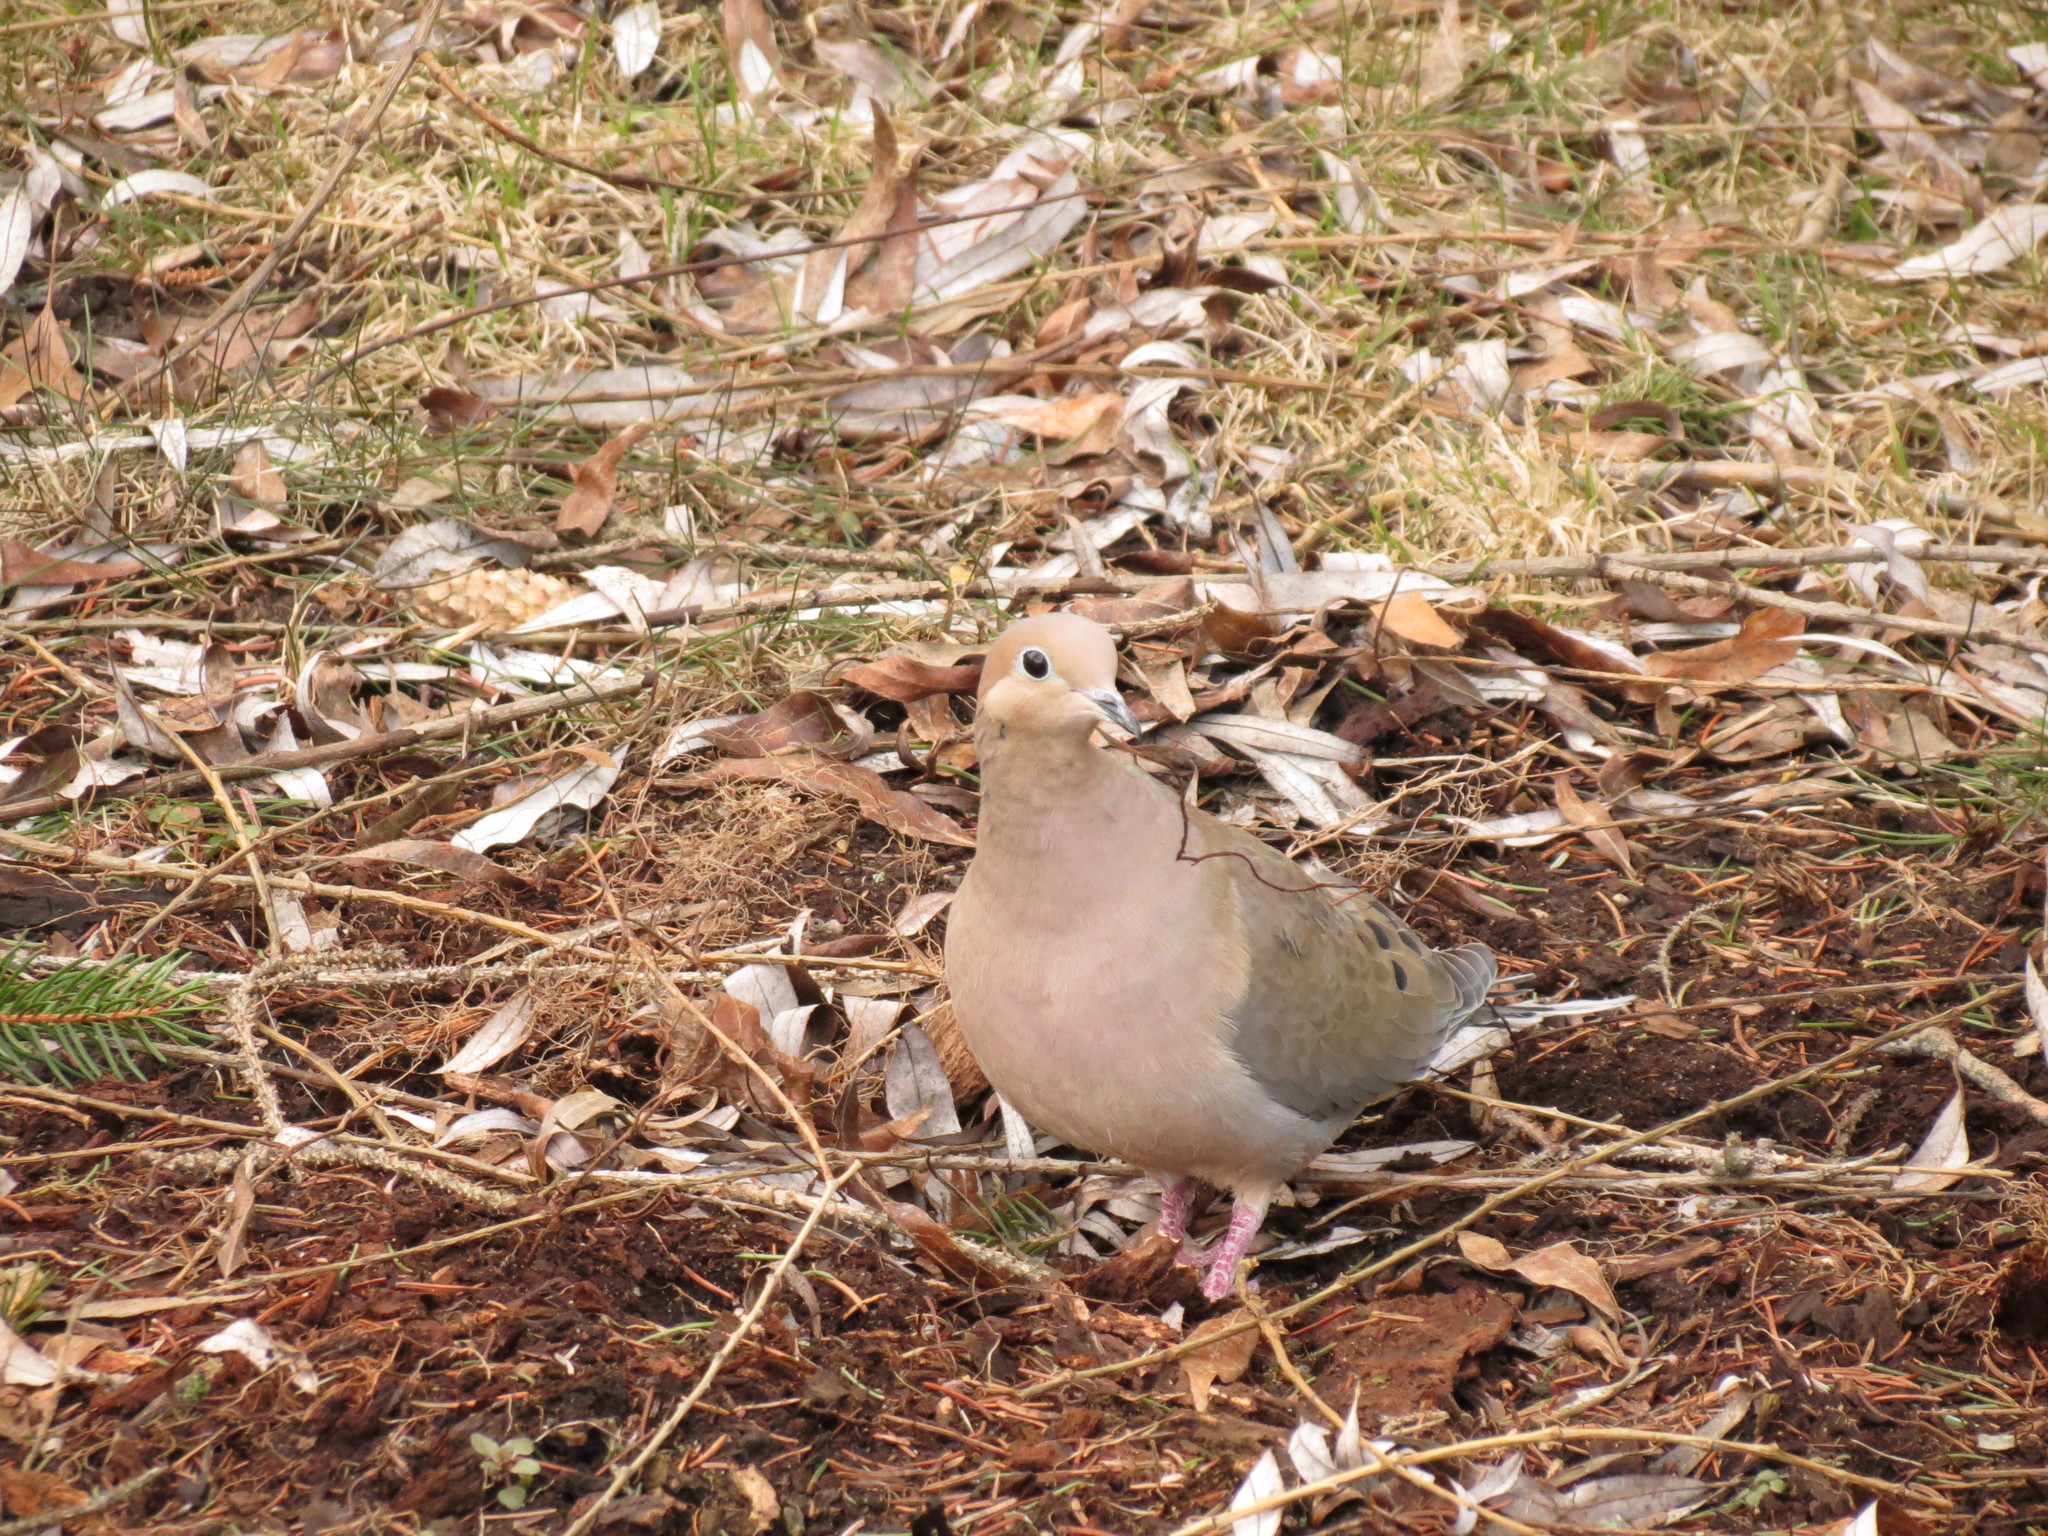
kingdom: Animalia
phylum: Chordata
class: Aves
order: Columbiformes
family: Columbidae
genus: Zenaida
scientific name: Zenaida macroura
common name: Mourning dove
